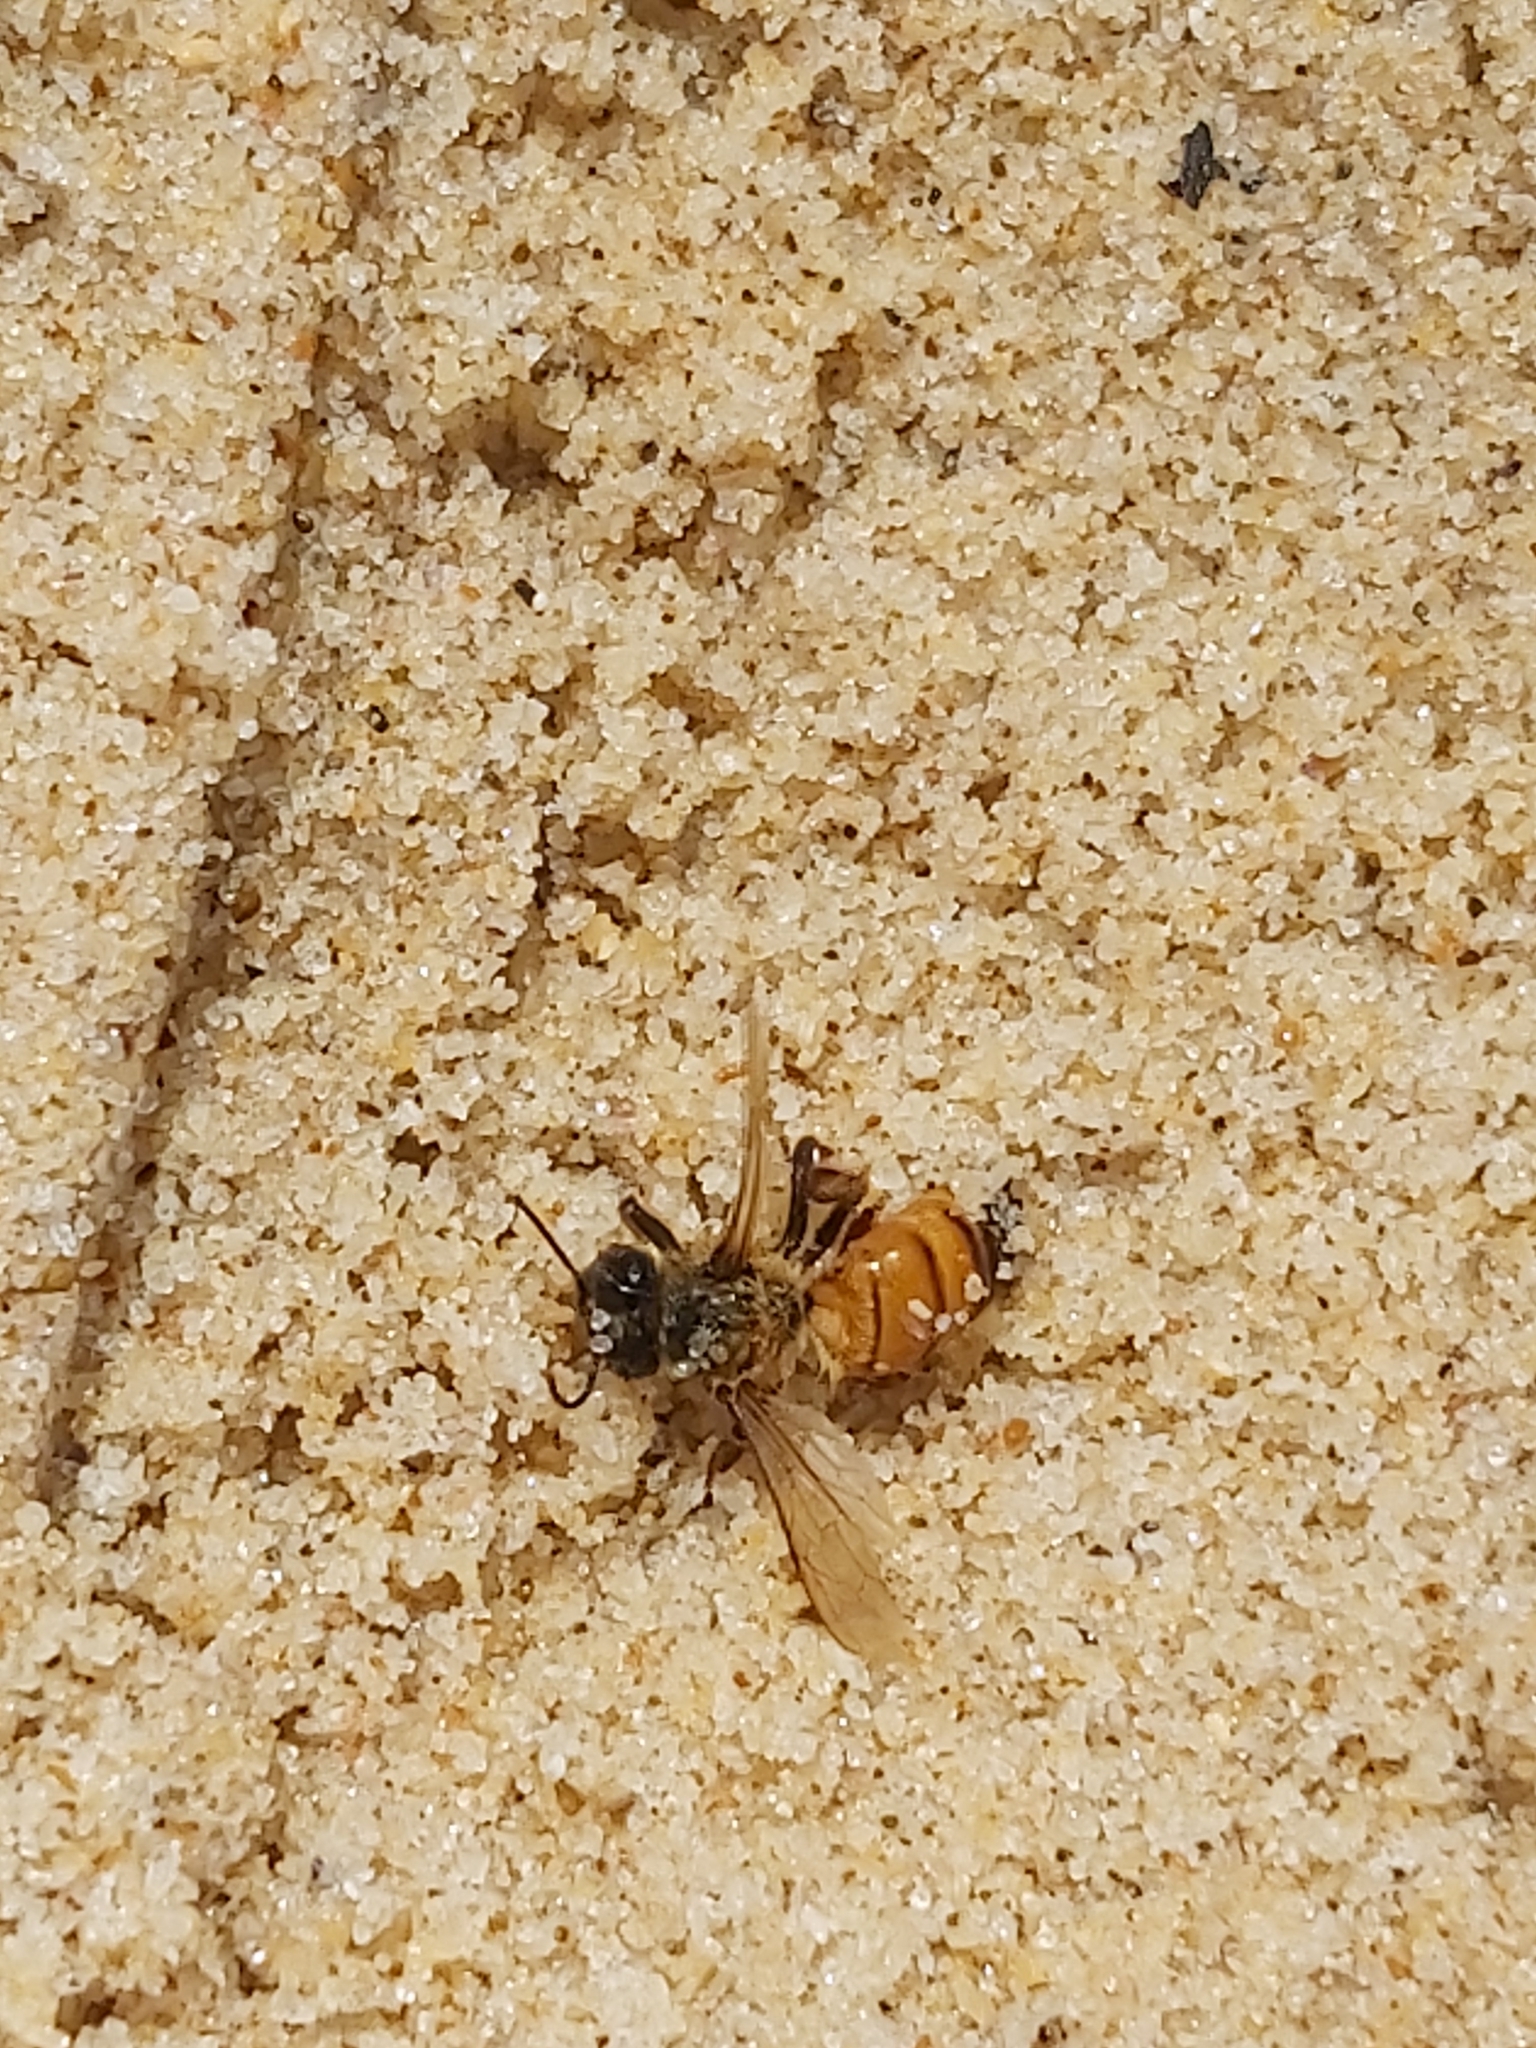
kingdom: Animalia
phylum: Arthropoda
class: Insecta
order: Hymenoptera
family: Apidae
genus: Apis
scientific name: Apis mellifera
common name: Honey bee
